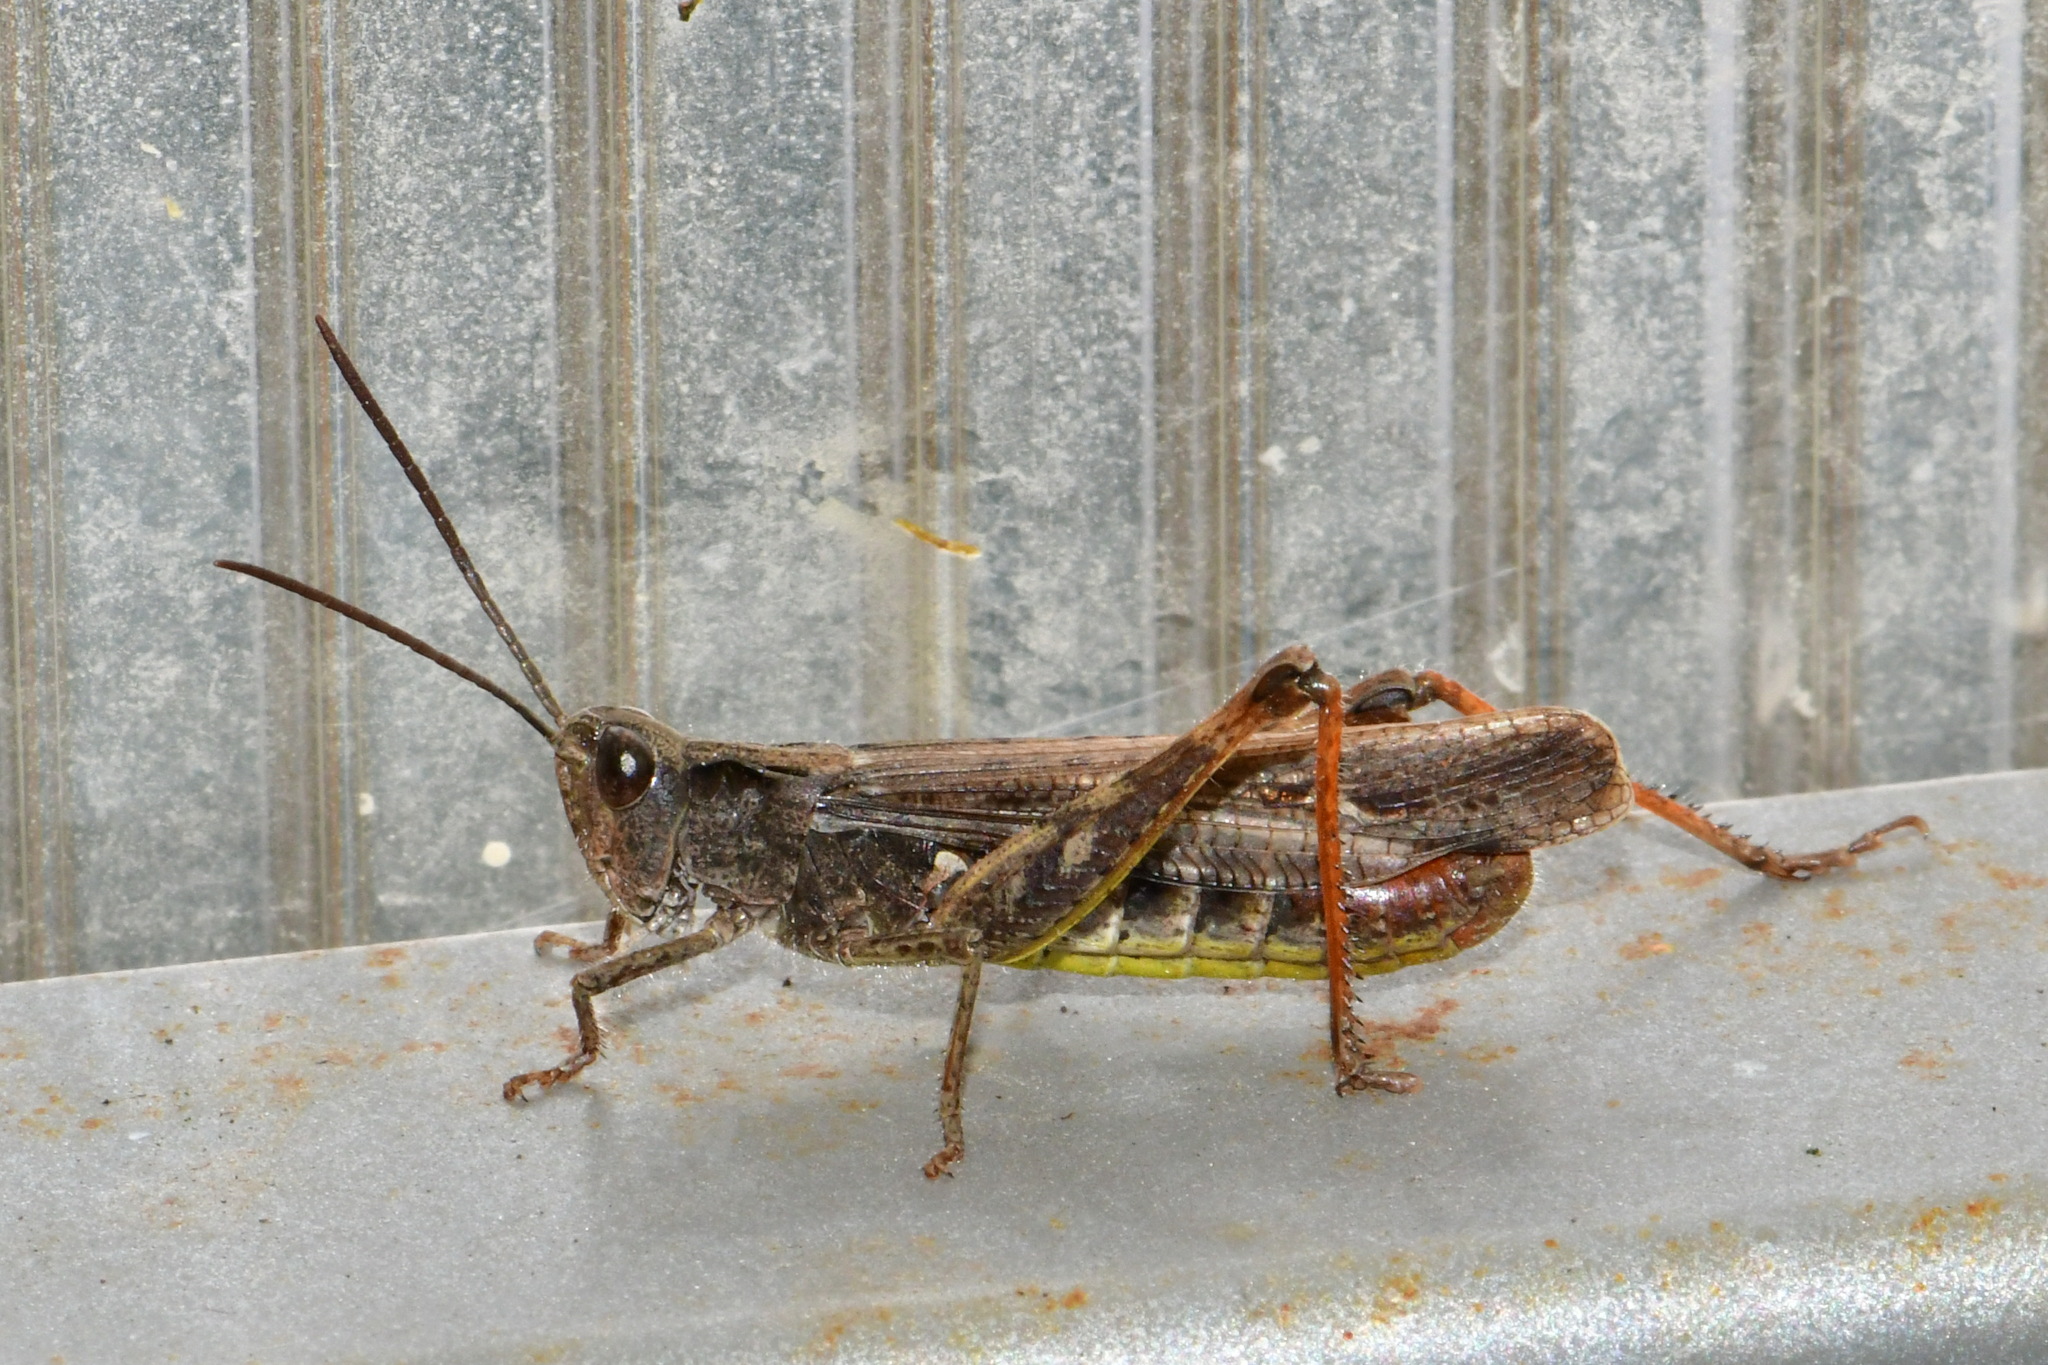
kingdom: Animalia
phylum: Arthropoda
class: Insecta
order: Orthoptera
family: Acrididae
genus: Chorthippus
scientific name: Chorthippus biguttulus
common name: Bow-winged grasshopper
